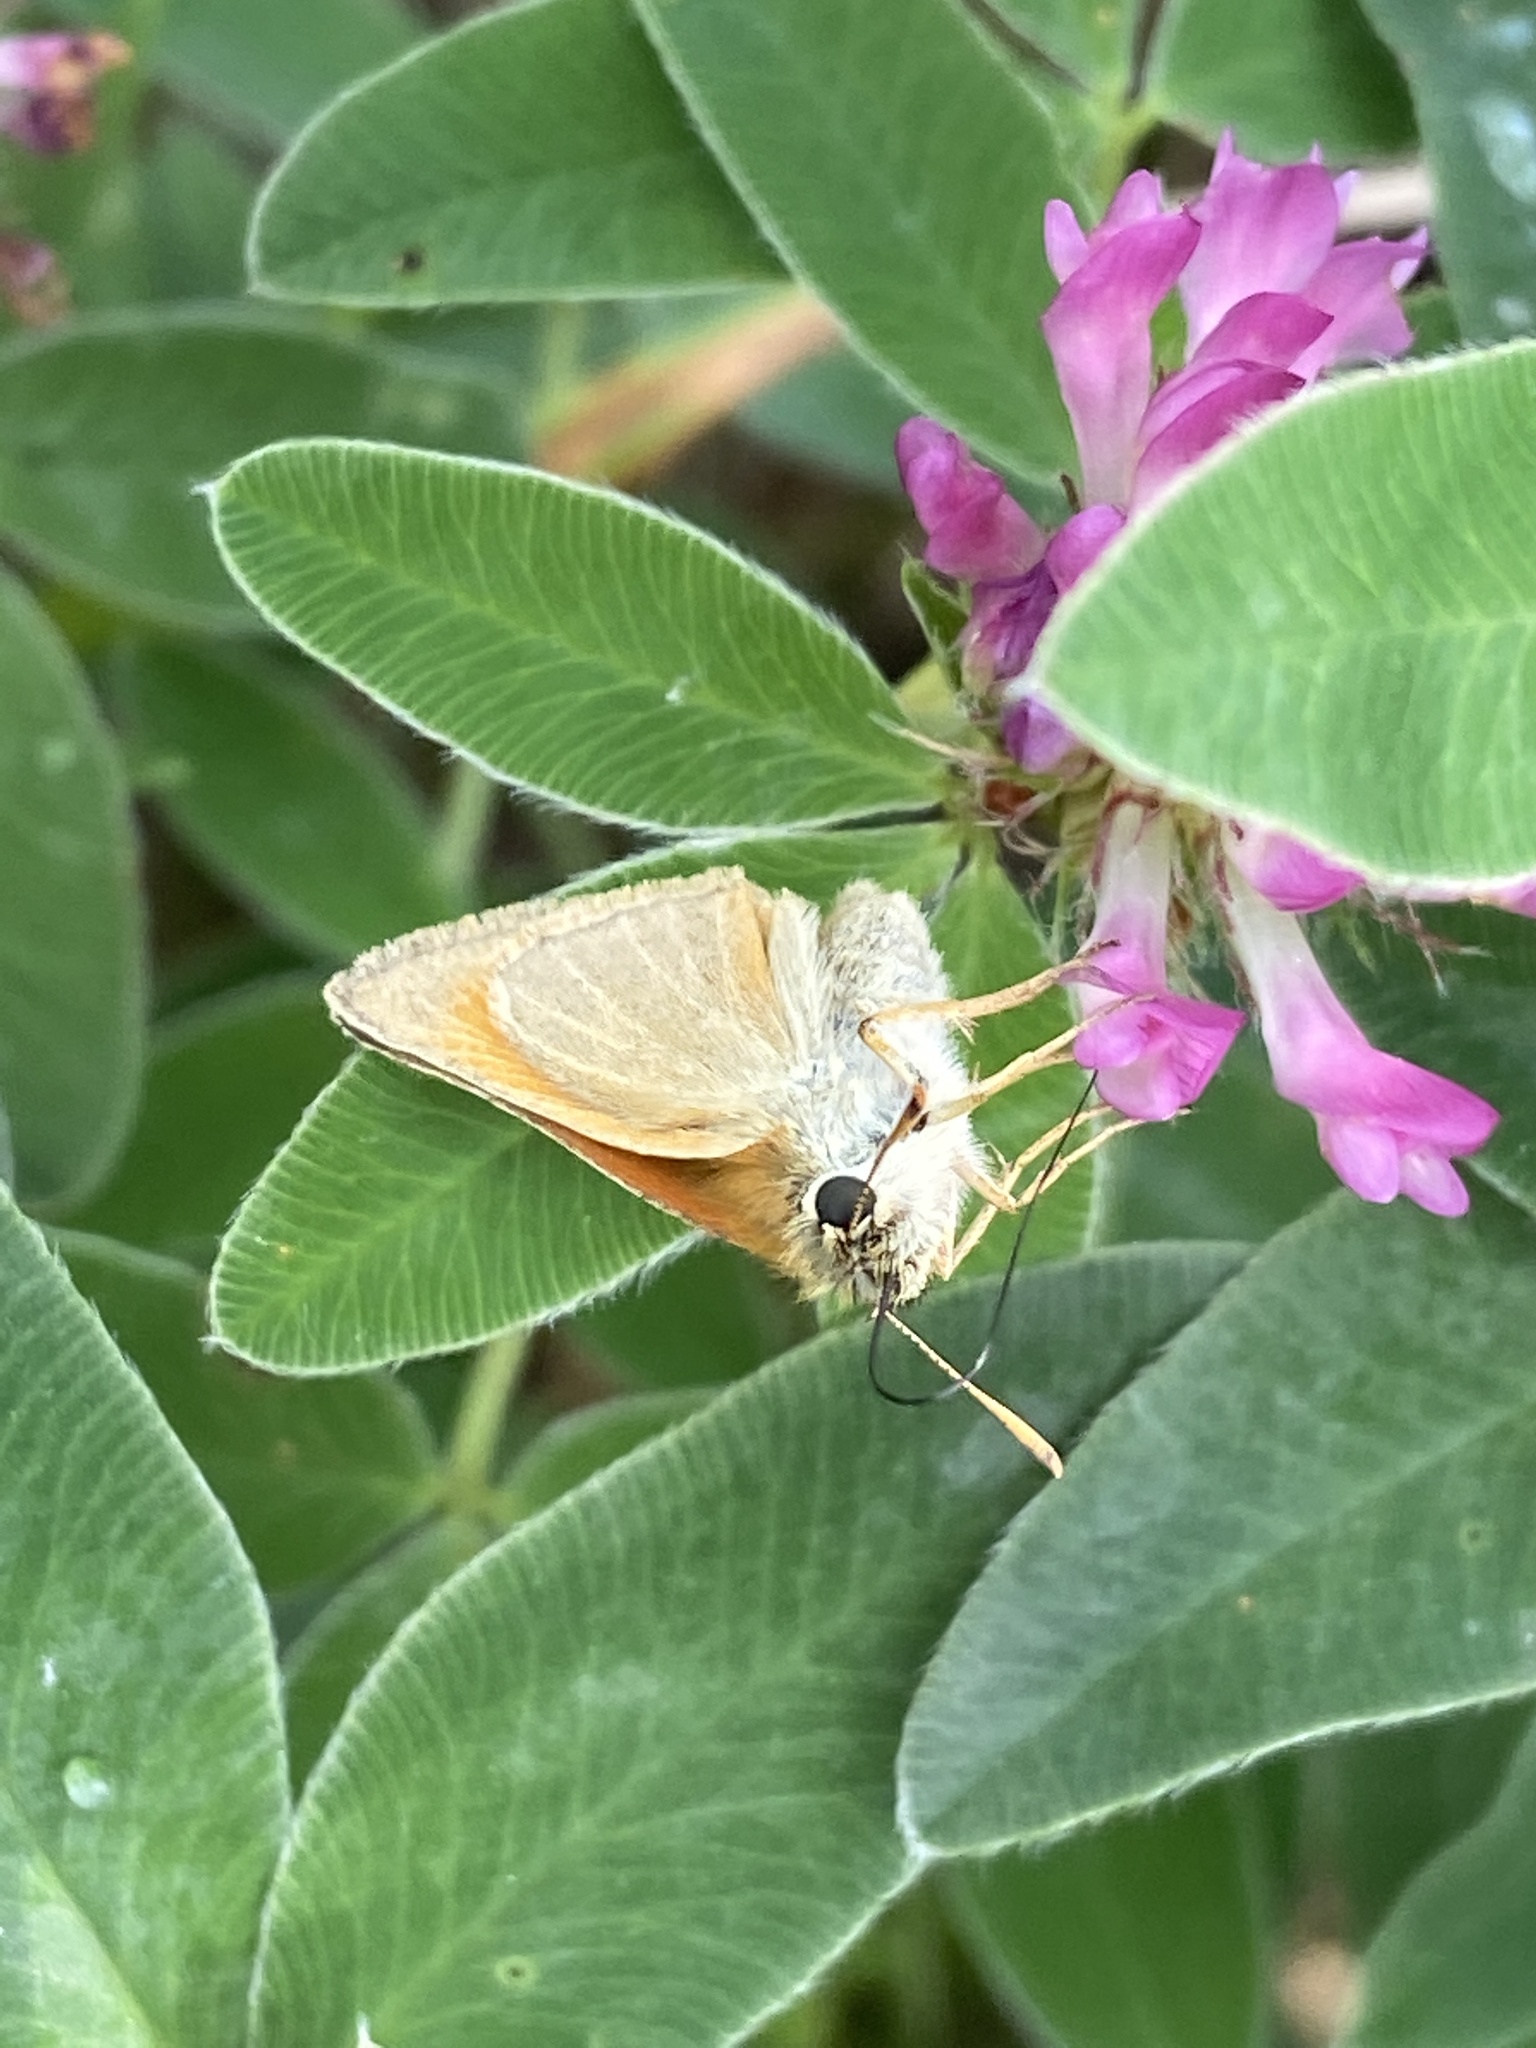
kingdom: Animalia
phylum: Arthropoda
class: Insecta
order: Lepidoptera
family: Hesperiidae
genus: Thymelicus
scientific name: Thymelicus sylvestris
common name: Small skipper
